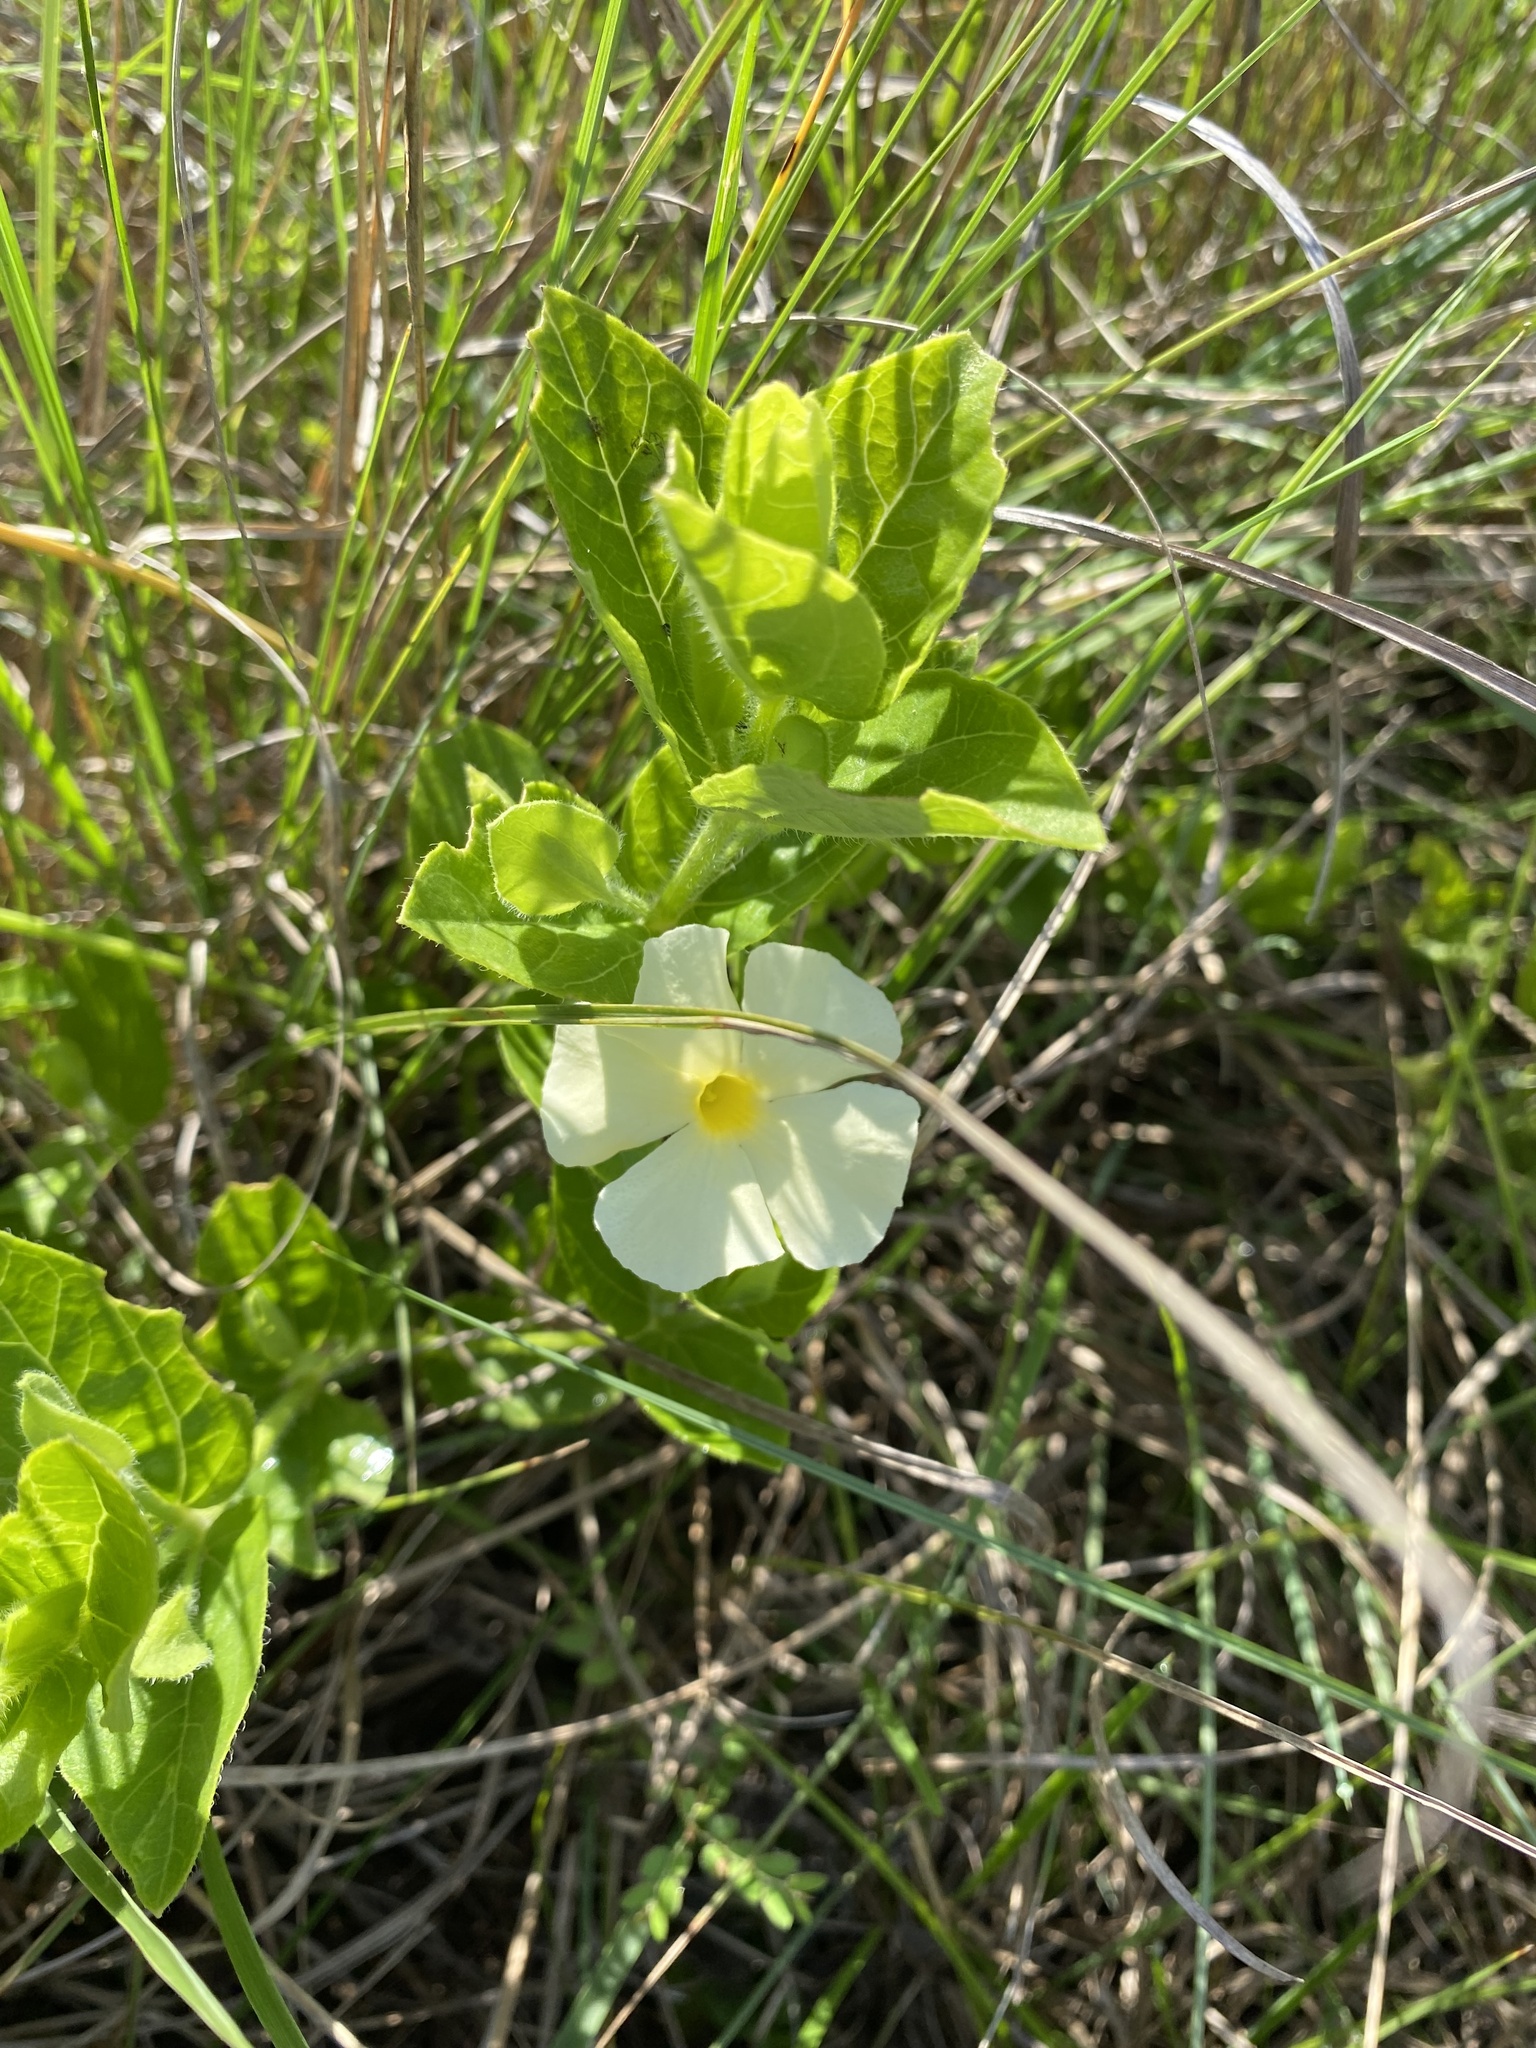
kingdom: Plantae
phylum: Tracheophyta
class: Magnoliopsida
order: Lamiales
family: Acanthaceae
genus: Thunbergia
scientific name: Thunbergia atriplicifolia
